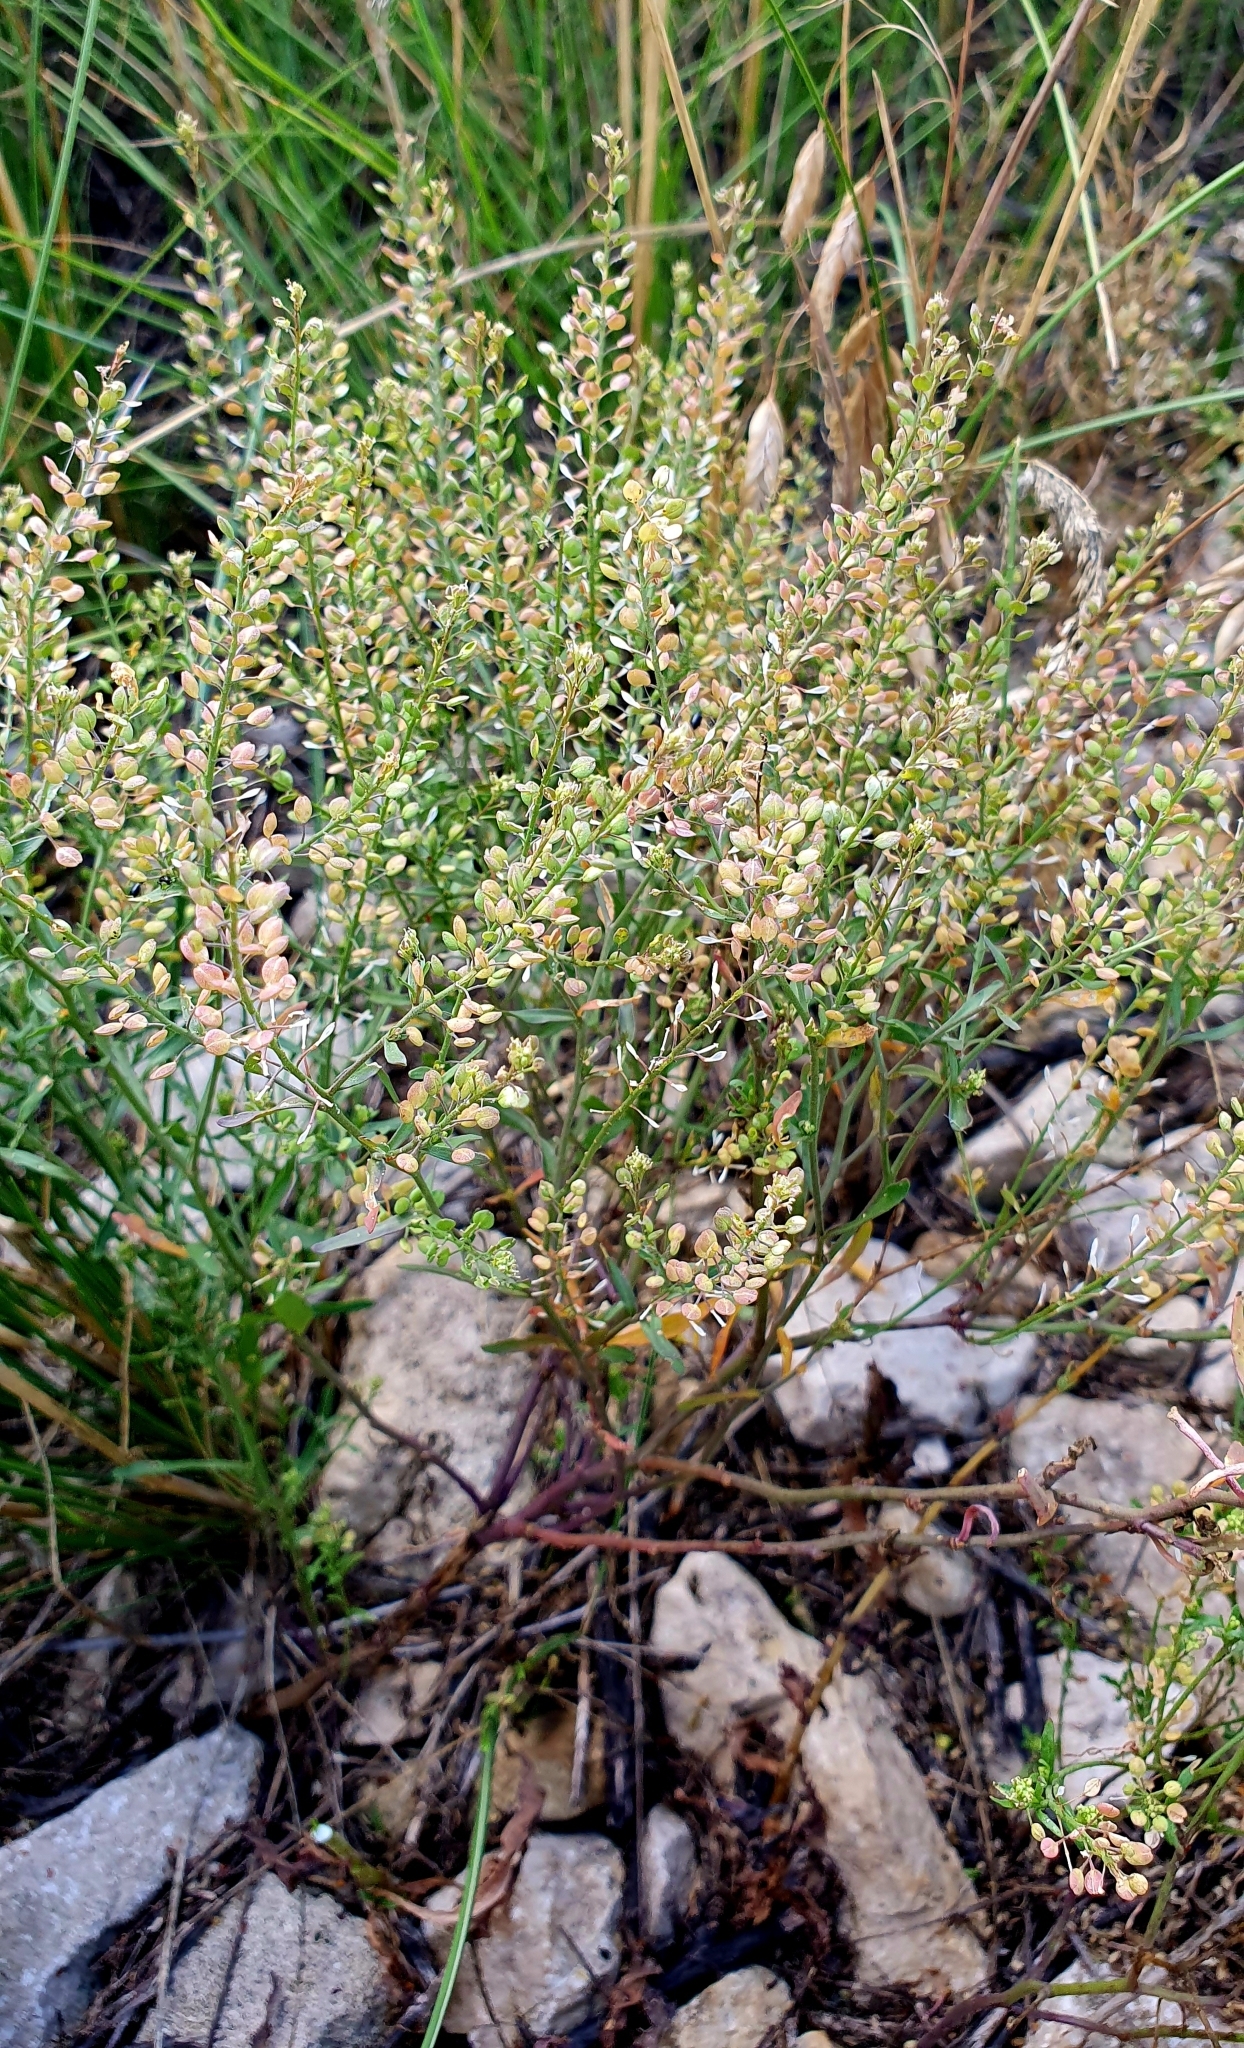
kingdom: Plantae
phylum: Tracheophyta
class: Magnoliopsida
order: Brassicales
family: Brassicaceae
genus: Lepidium
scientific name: Lepidium ruderale
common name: Narrow-leaved pepperwort
